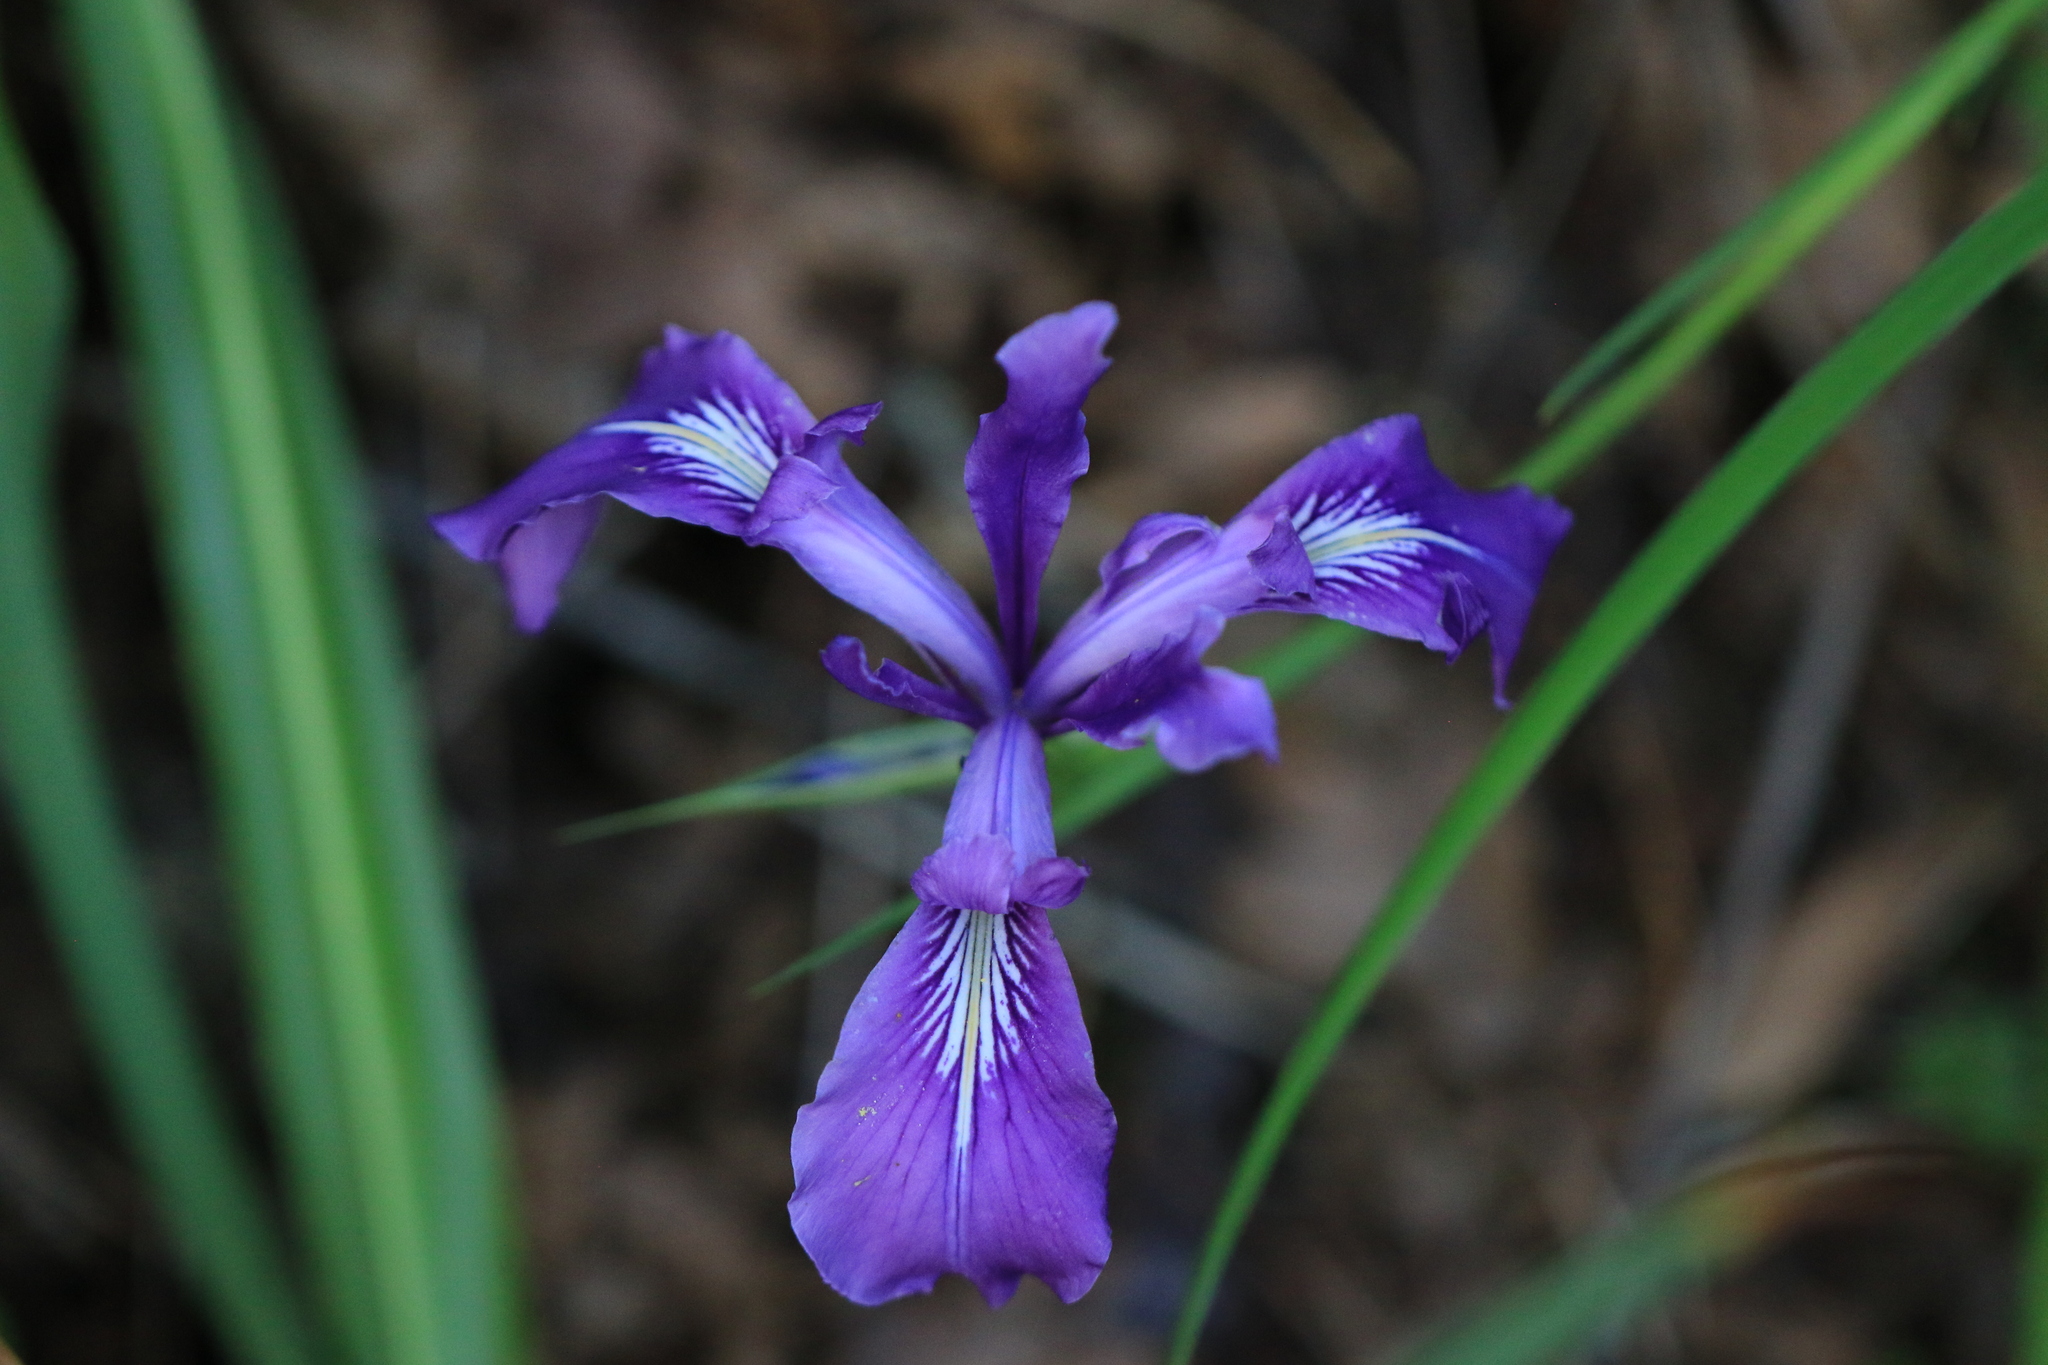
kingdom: Plantae
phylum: Tracheophyta
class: Liliopsida
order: Asparagales
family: Iridaceae
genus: Iris
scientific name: Iris tenax
